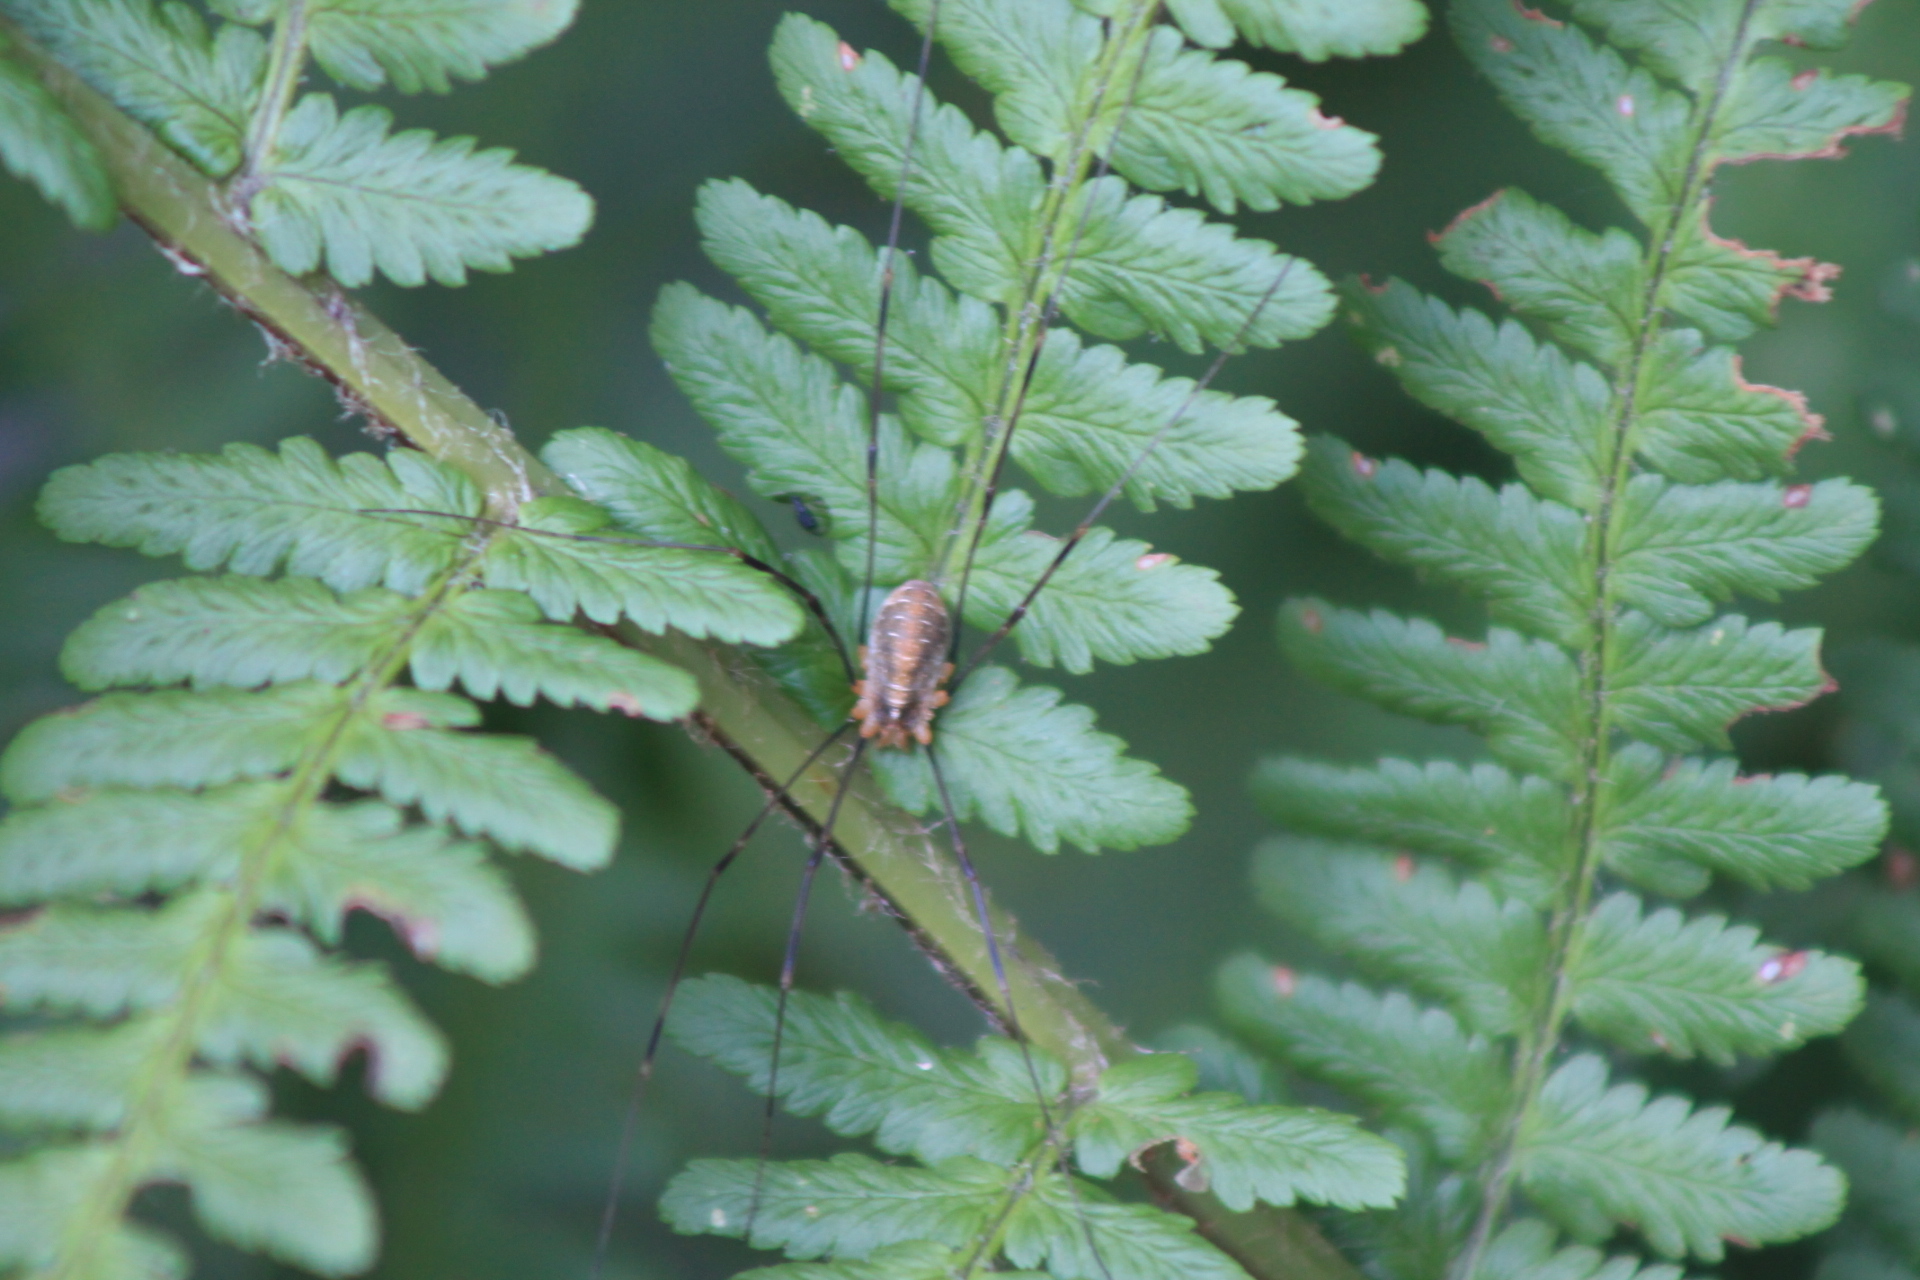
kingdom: Animalia
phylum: Arthropoda
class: Arachnida
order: Opiliones
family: Phalangiidae
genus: Opilio
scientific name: Opilio canestrinii
